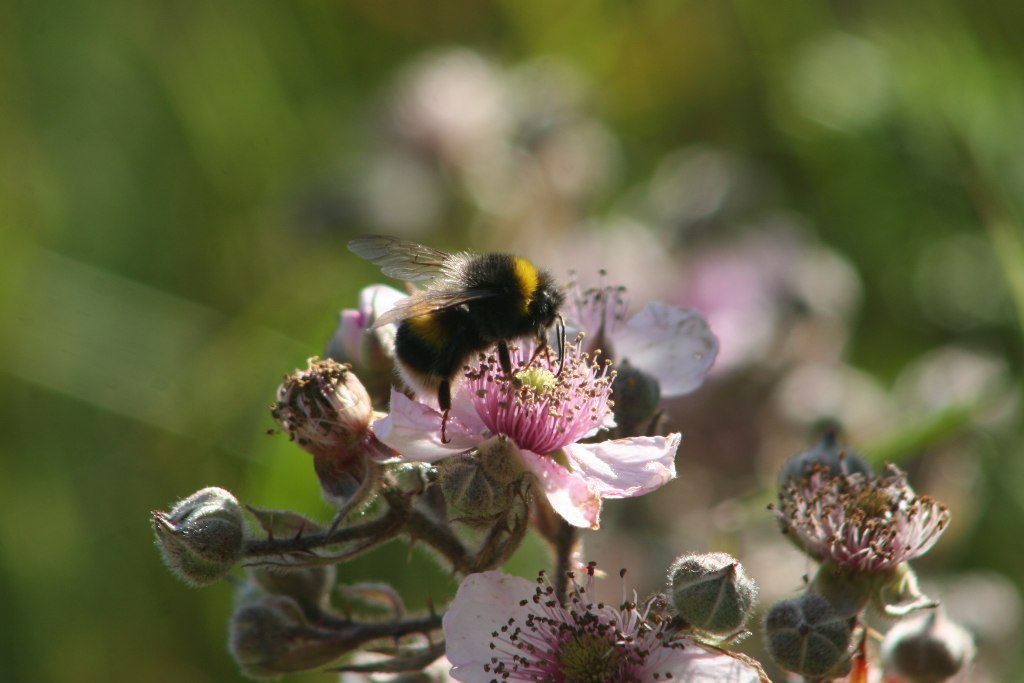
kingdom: Animalia
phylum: Arthropoda
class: Insecta
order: Hymenoptera
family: Apidae
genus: Bombus
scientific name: Bombus terrestris
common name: Buff-tailed bumblebee
